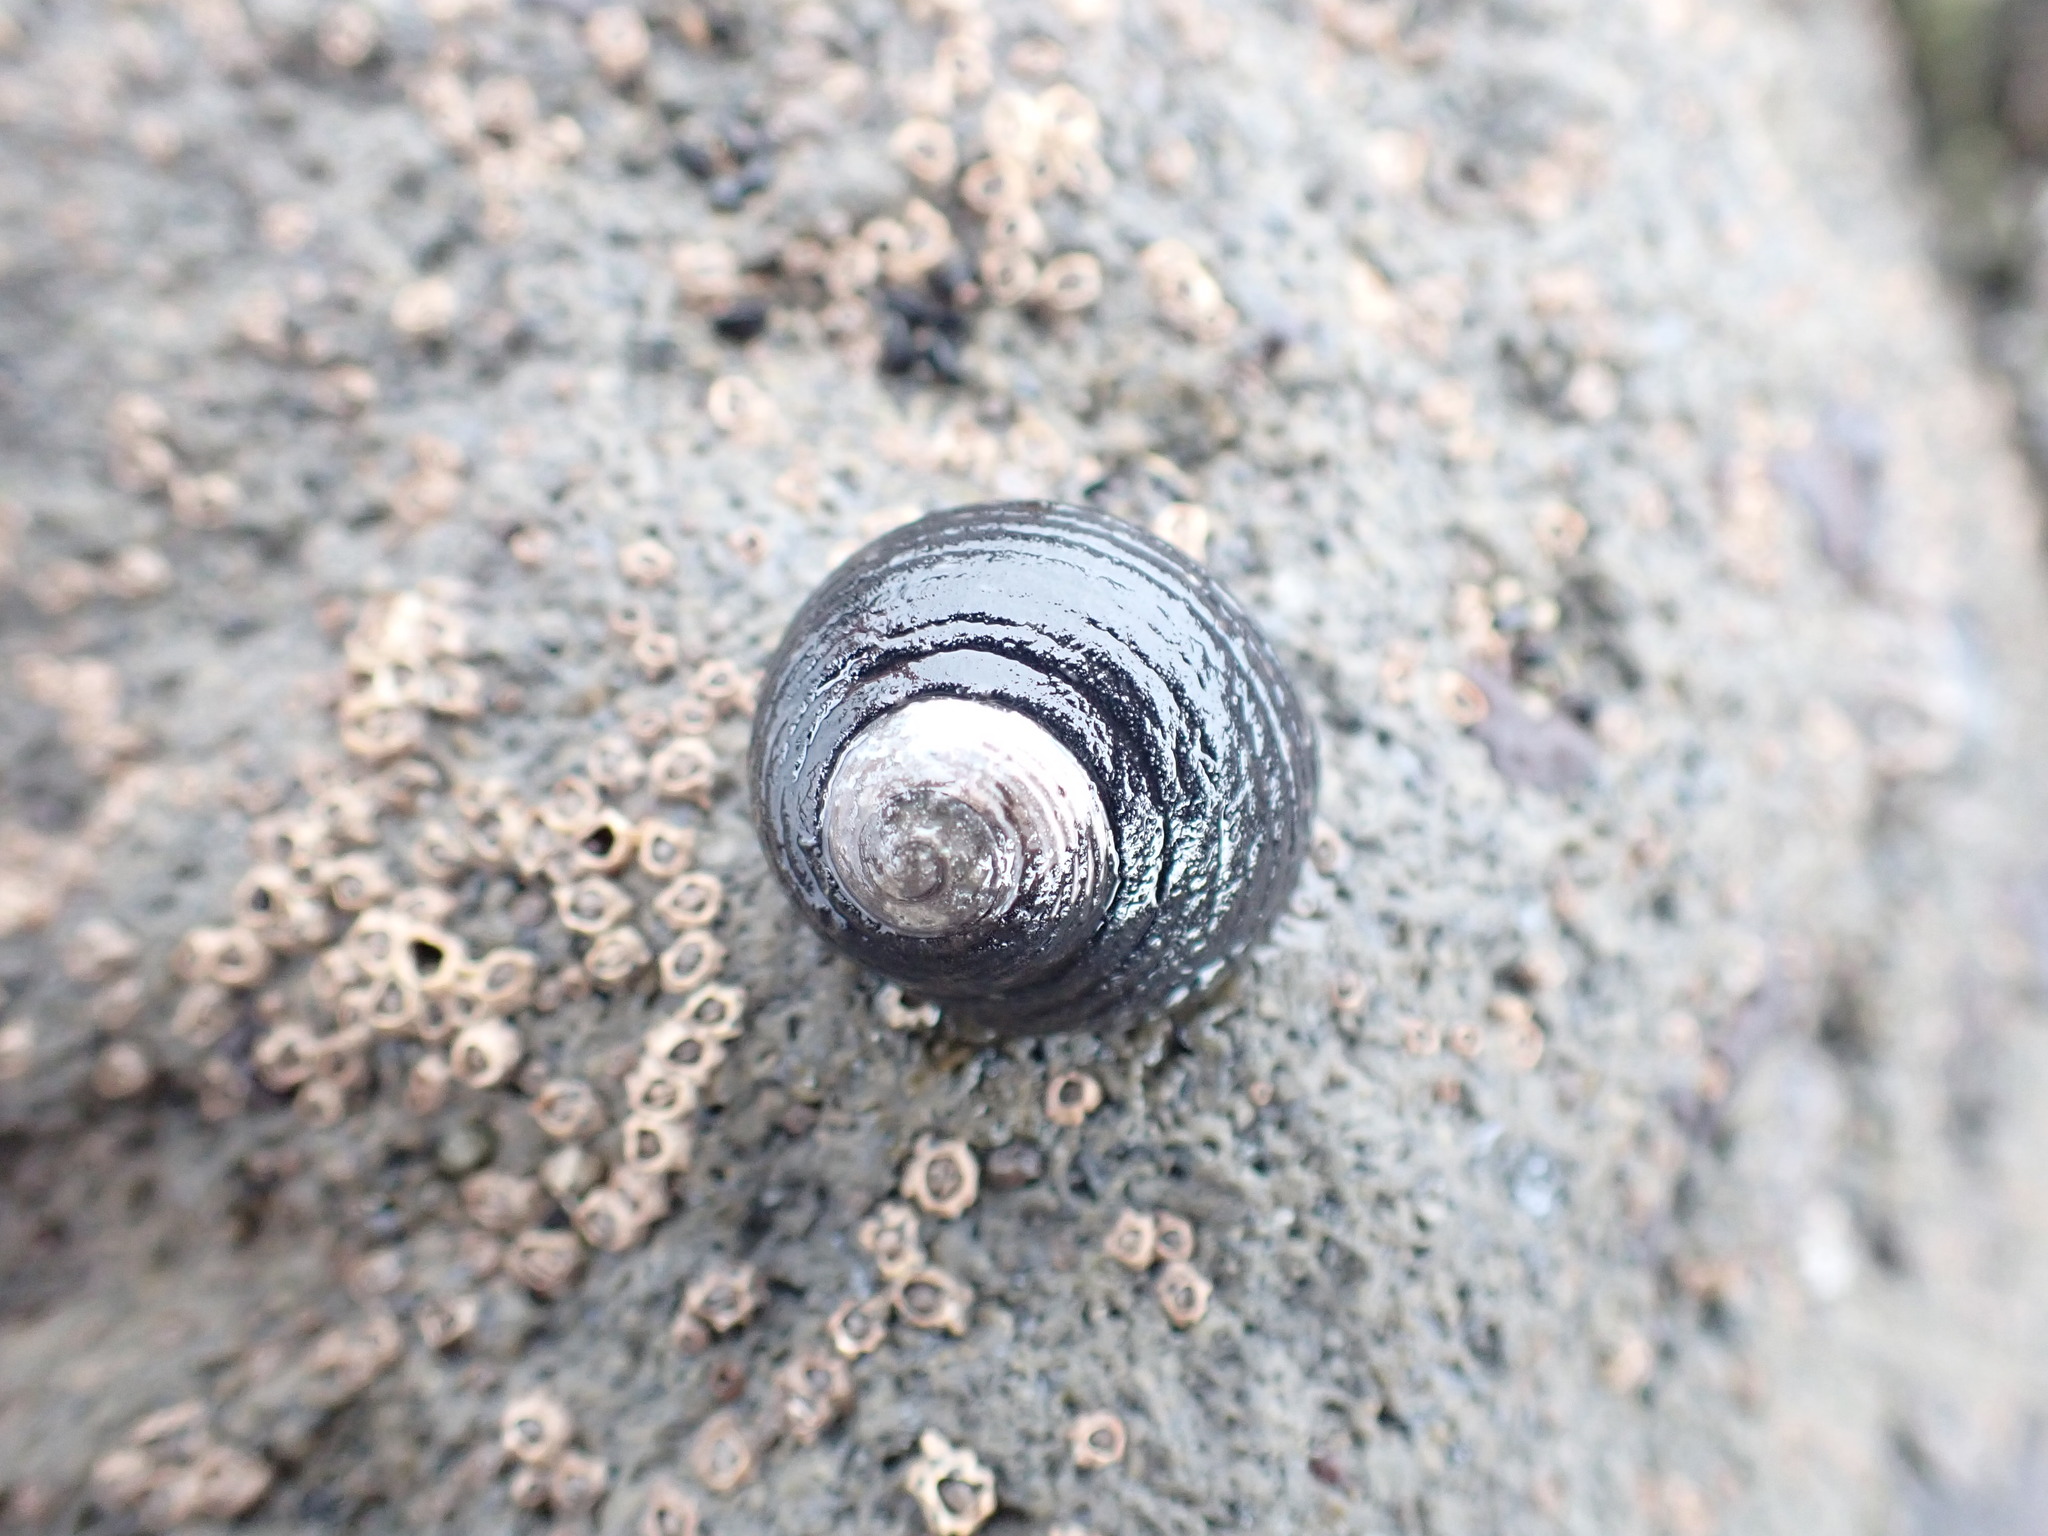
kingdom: Animalia
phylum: Mollusca
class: Gastropoda
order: Trochida
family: Trochidae
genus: Diloma
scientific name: Diloma zelandicum
